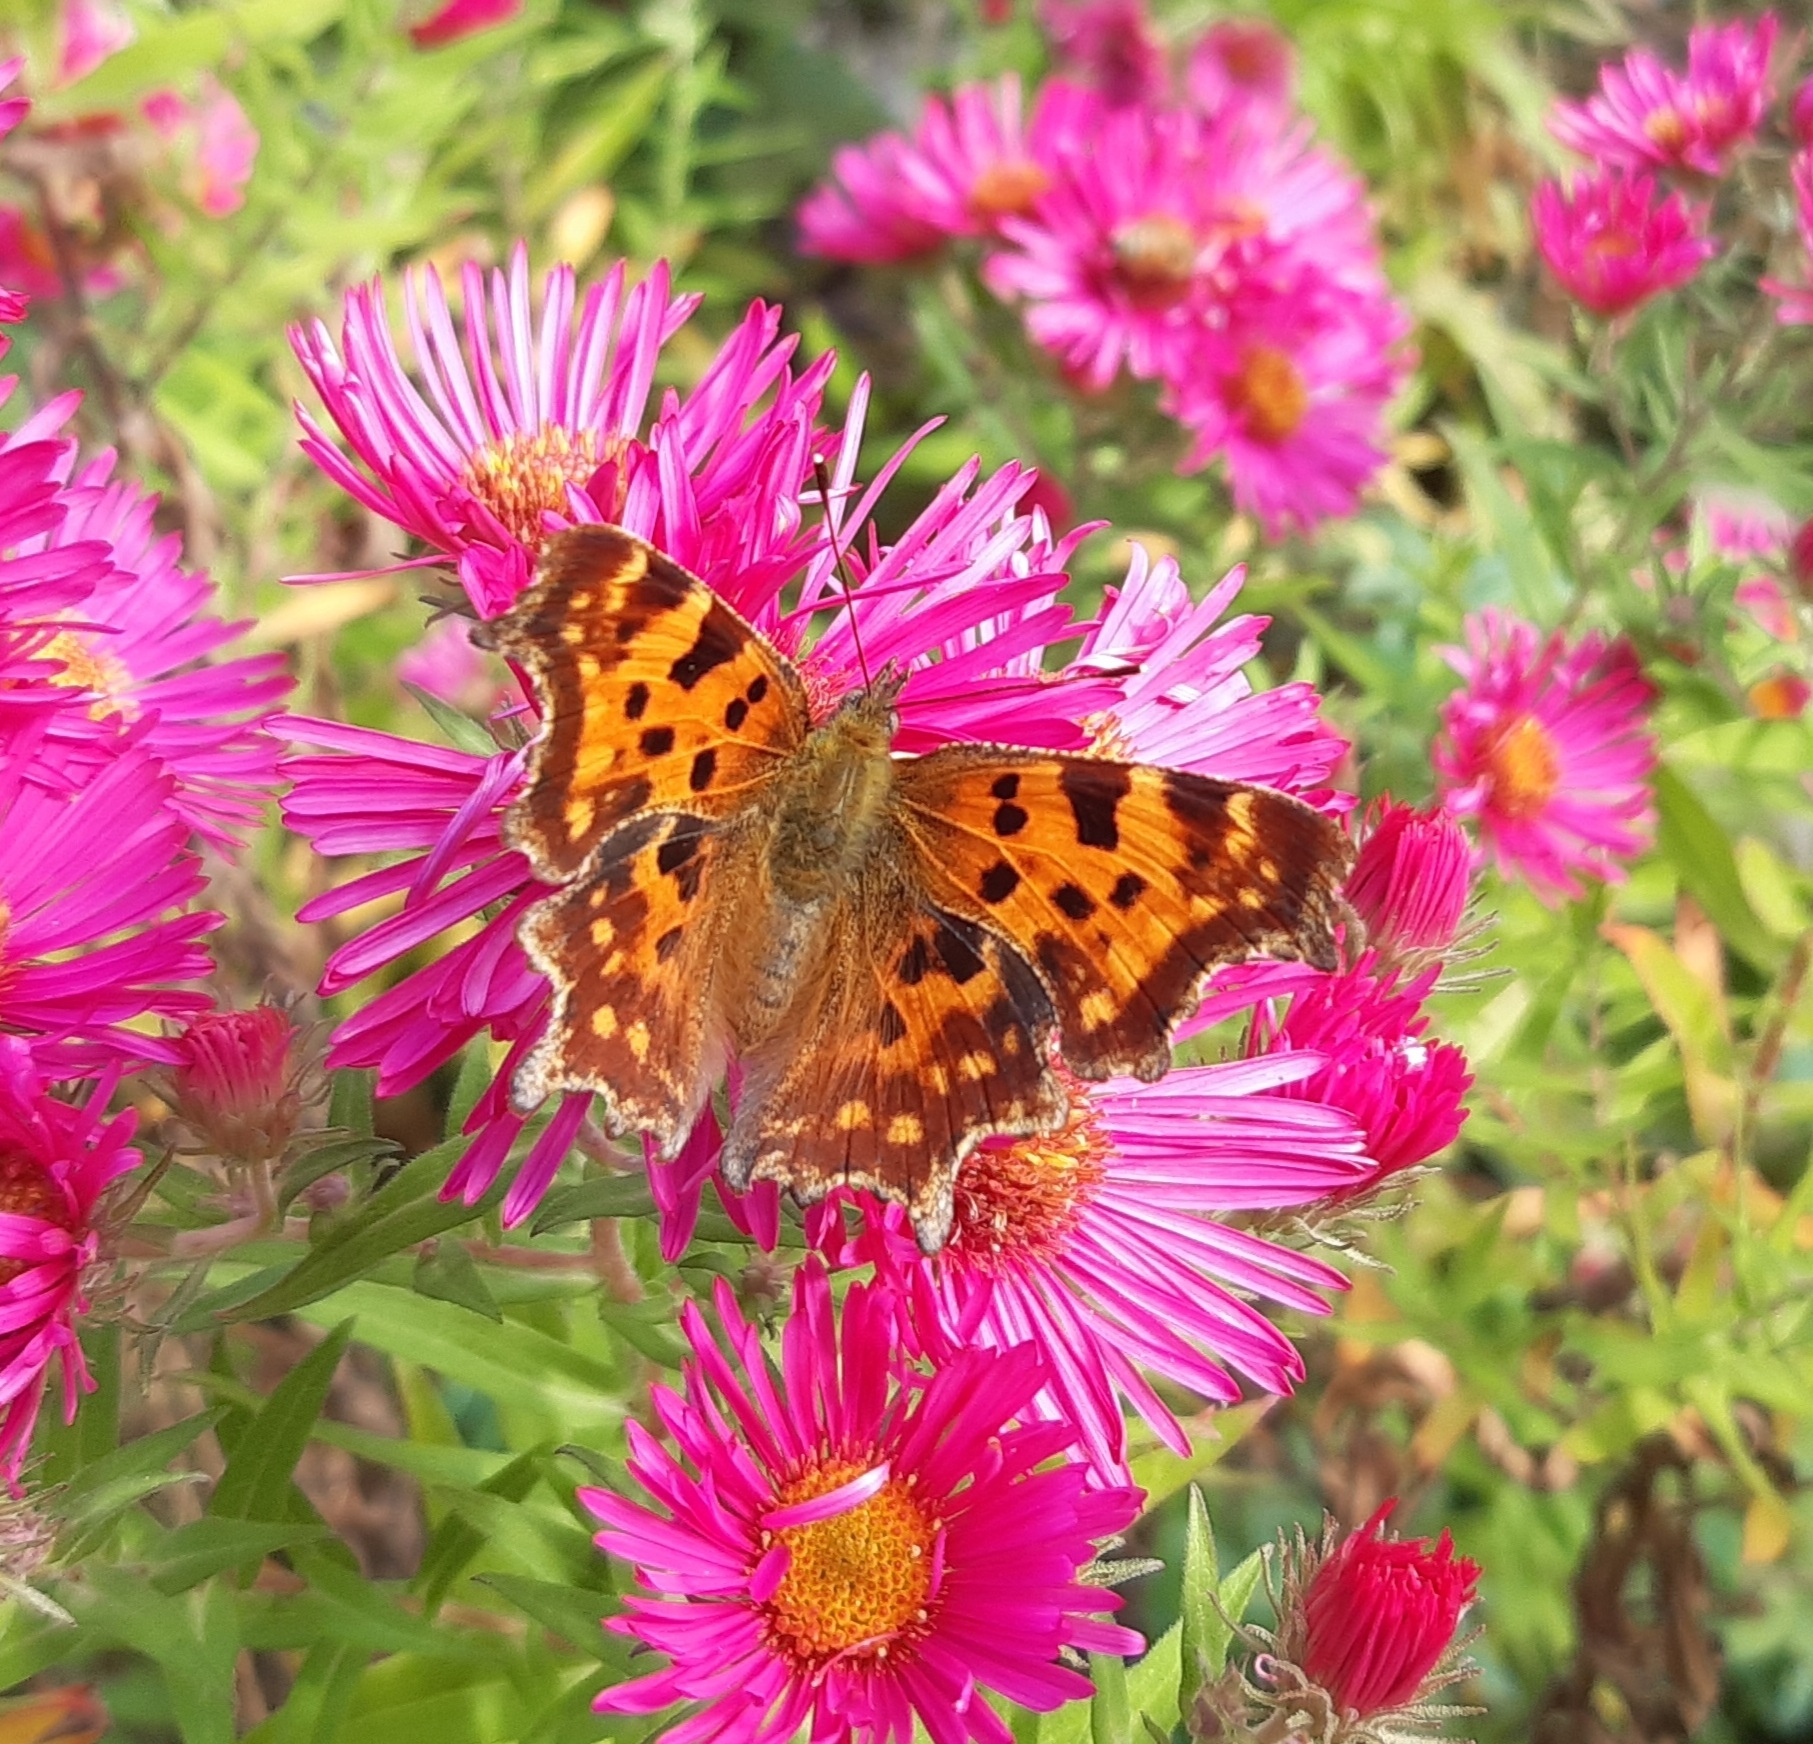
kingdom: Animalia
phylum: Arthropoda
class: Insecta
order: Lepidoptera
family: Nymphalidae
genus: Polygonia
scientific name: Polygonia c-album
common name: Comma
